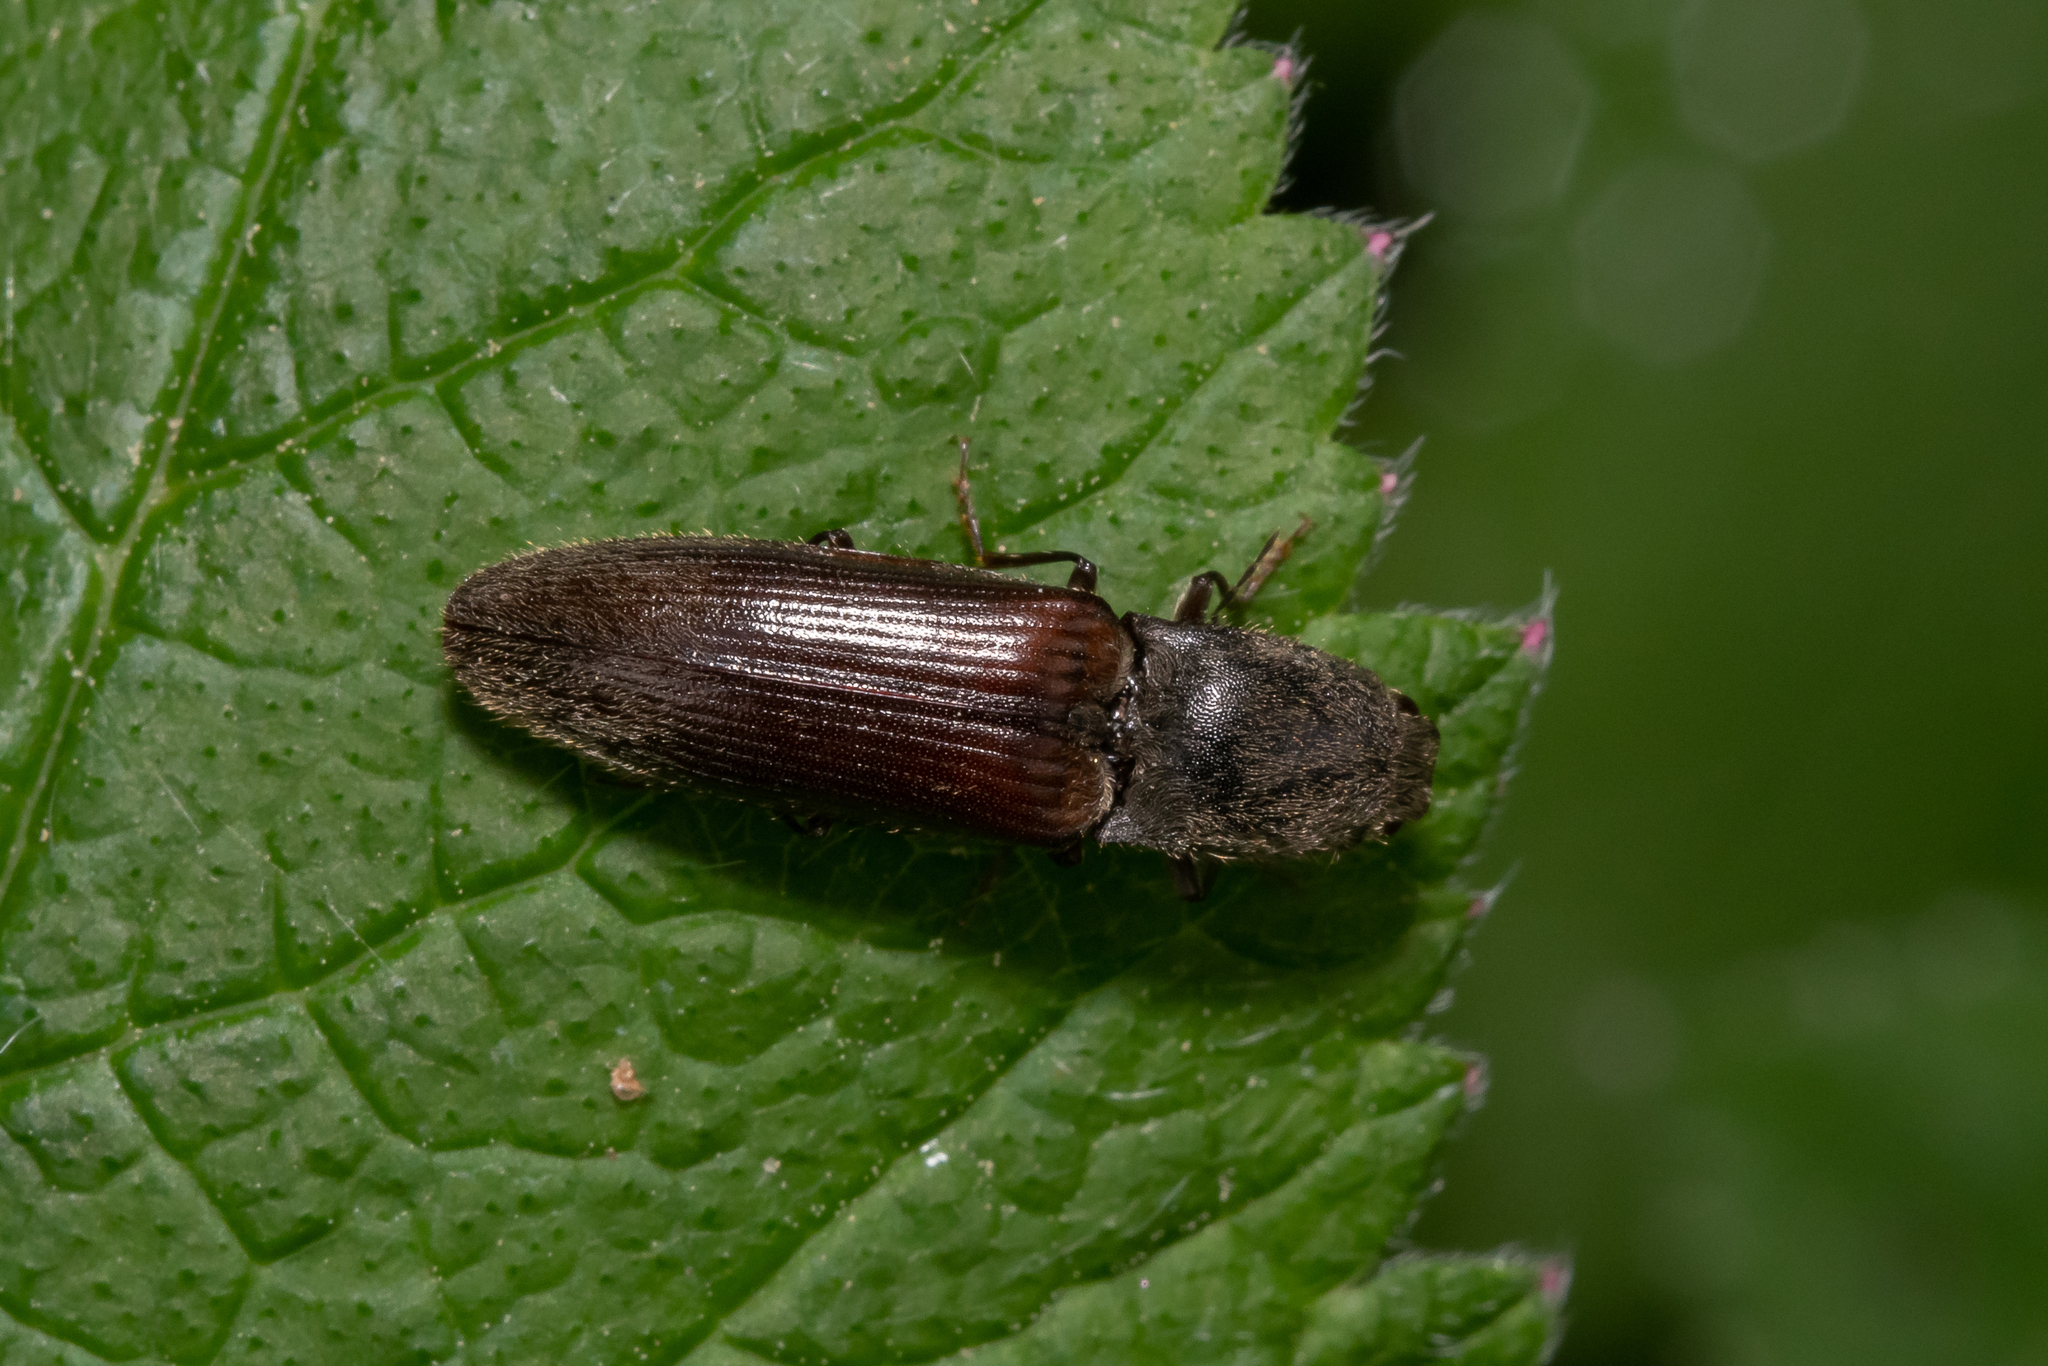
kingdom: Animalia
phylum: Arthropoda
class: Insecta
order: Coleoptera
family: Elateridae
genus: Athous
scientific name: Athous haemorrhoidalis
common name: Red-brown click beetle
